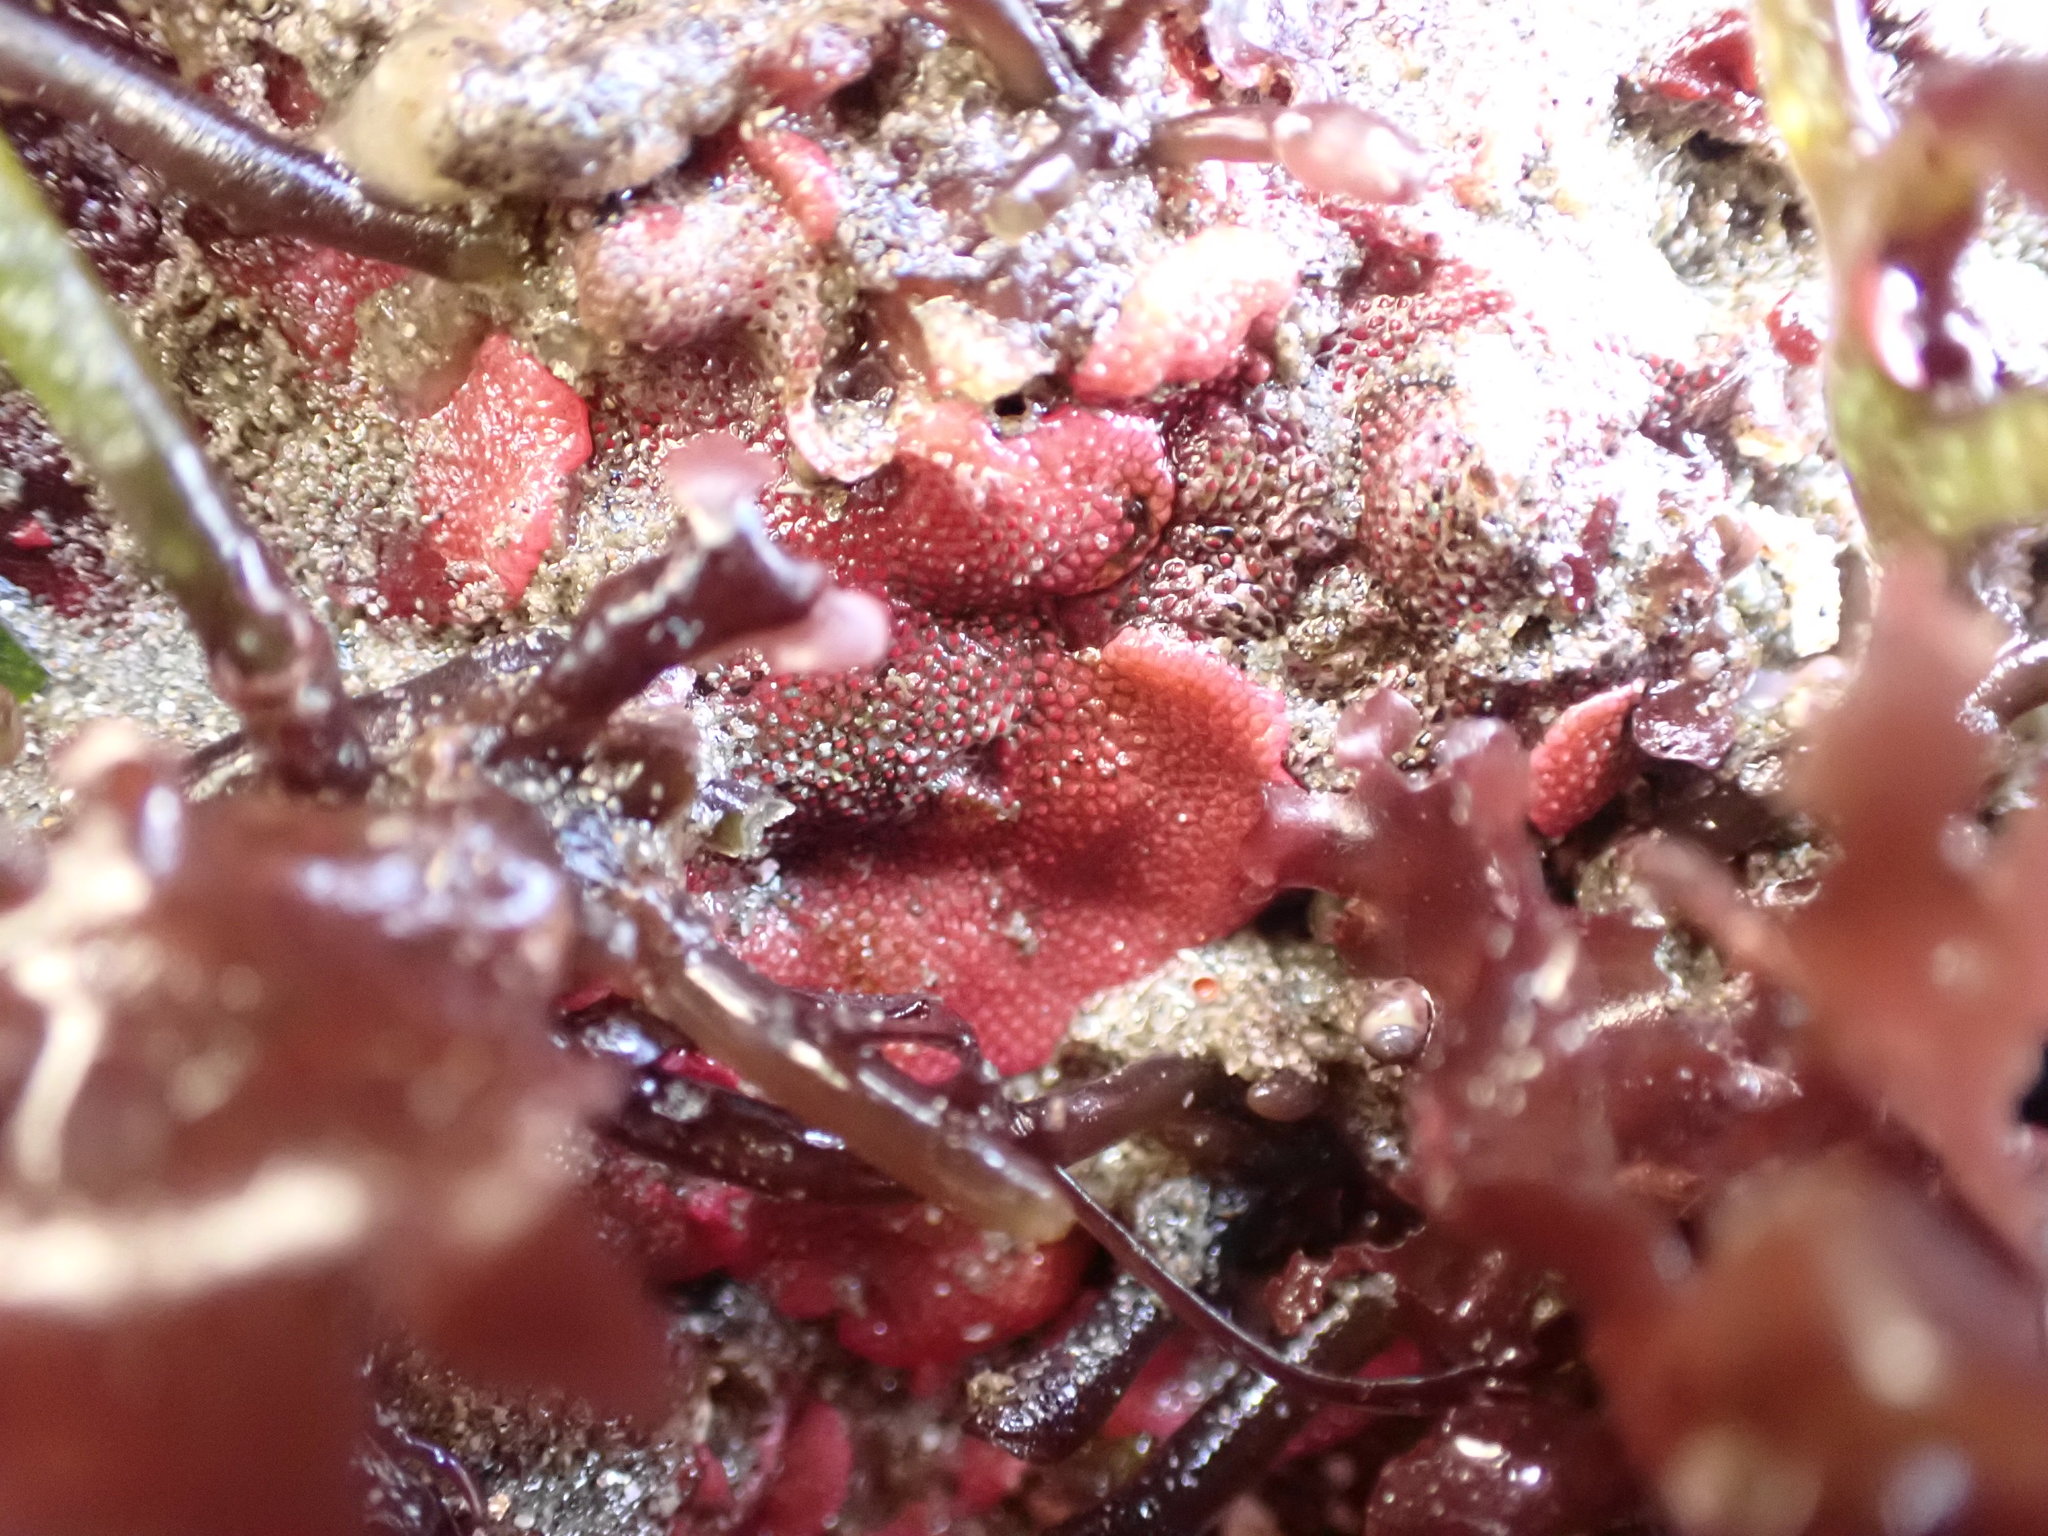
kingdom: Animalia
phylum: Bryozoa
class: Gymnolaemata
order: Cheilostomatida
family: Eurystomellidae
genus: Integripelta
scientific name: Integripelta bilabiata
